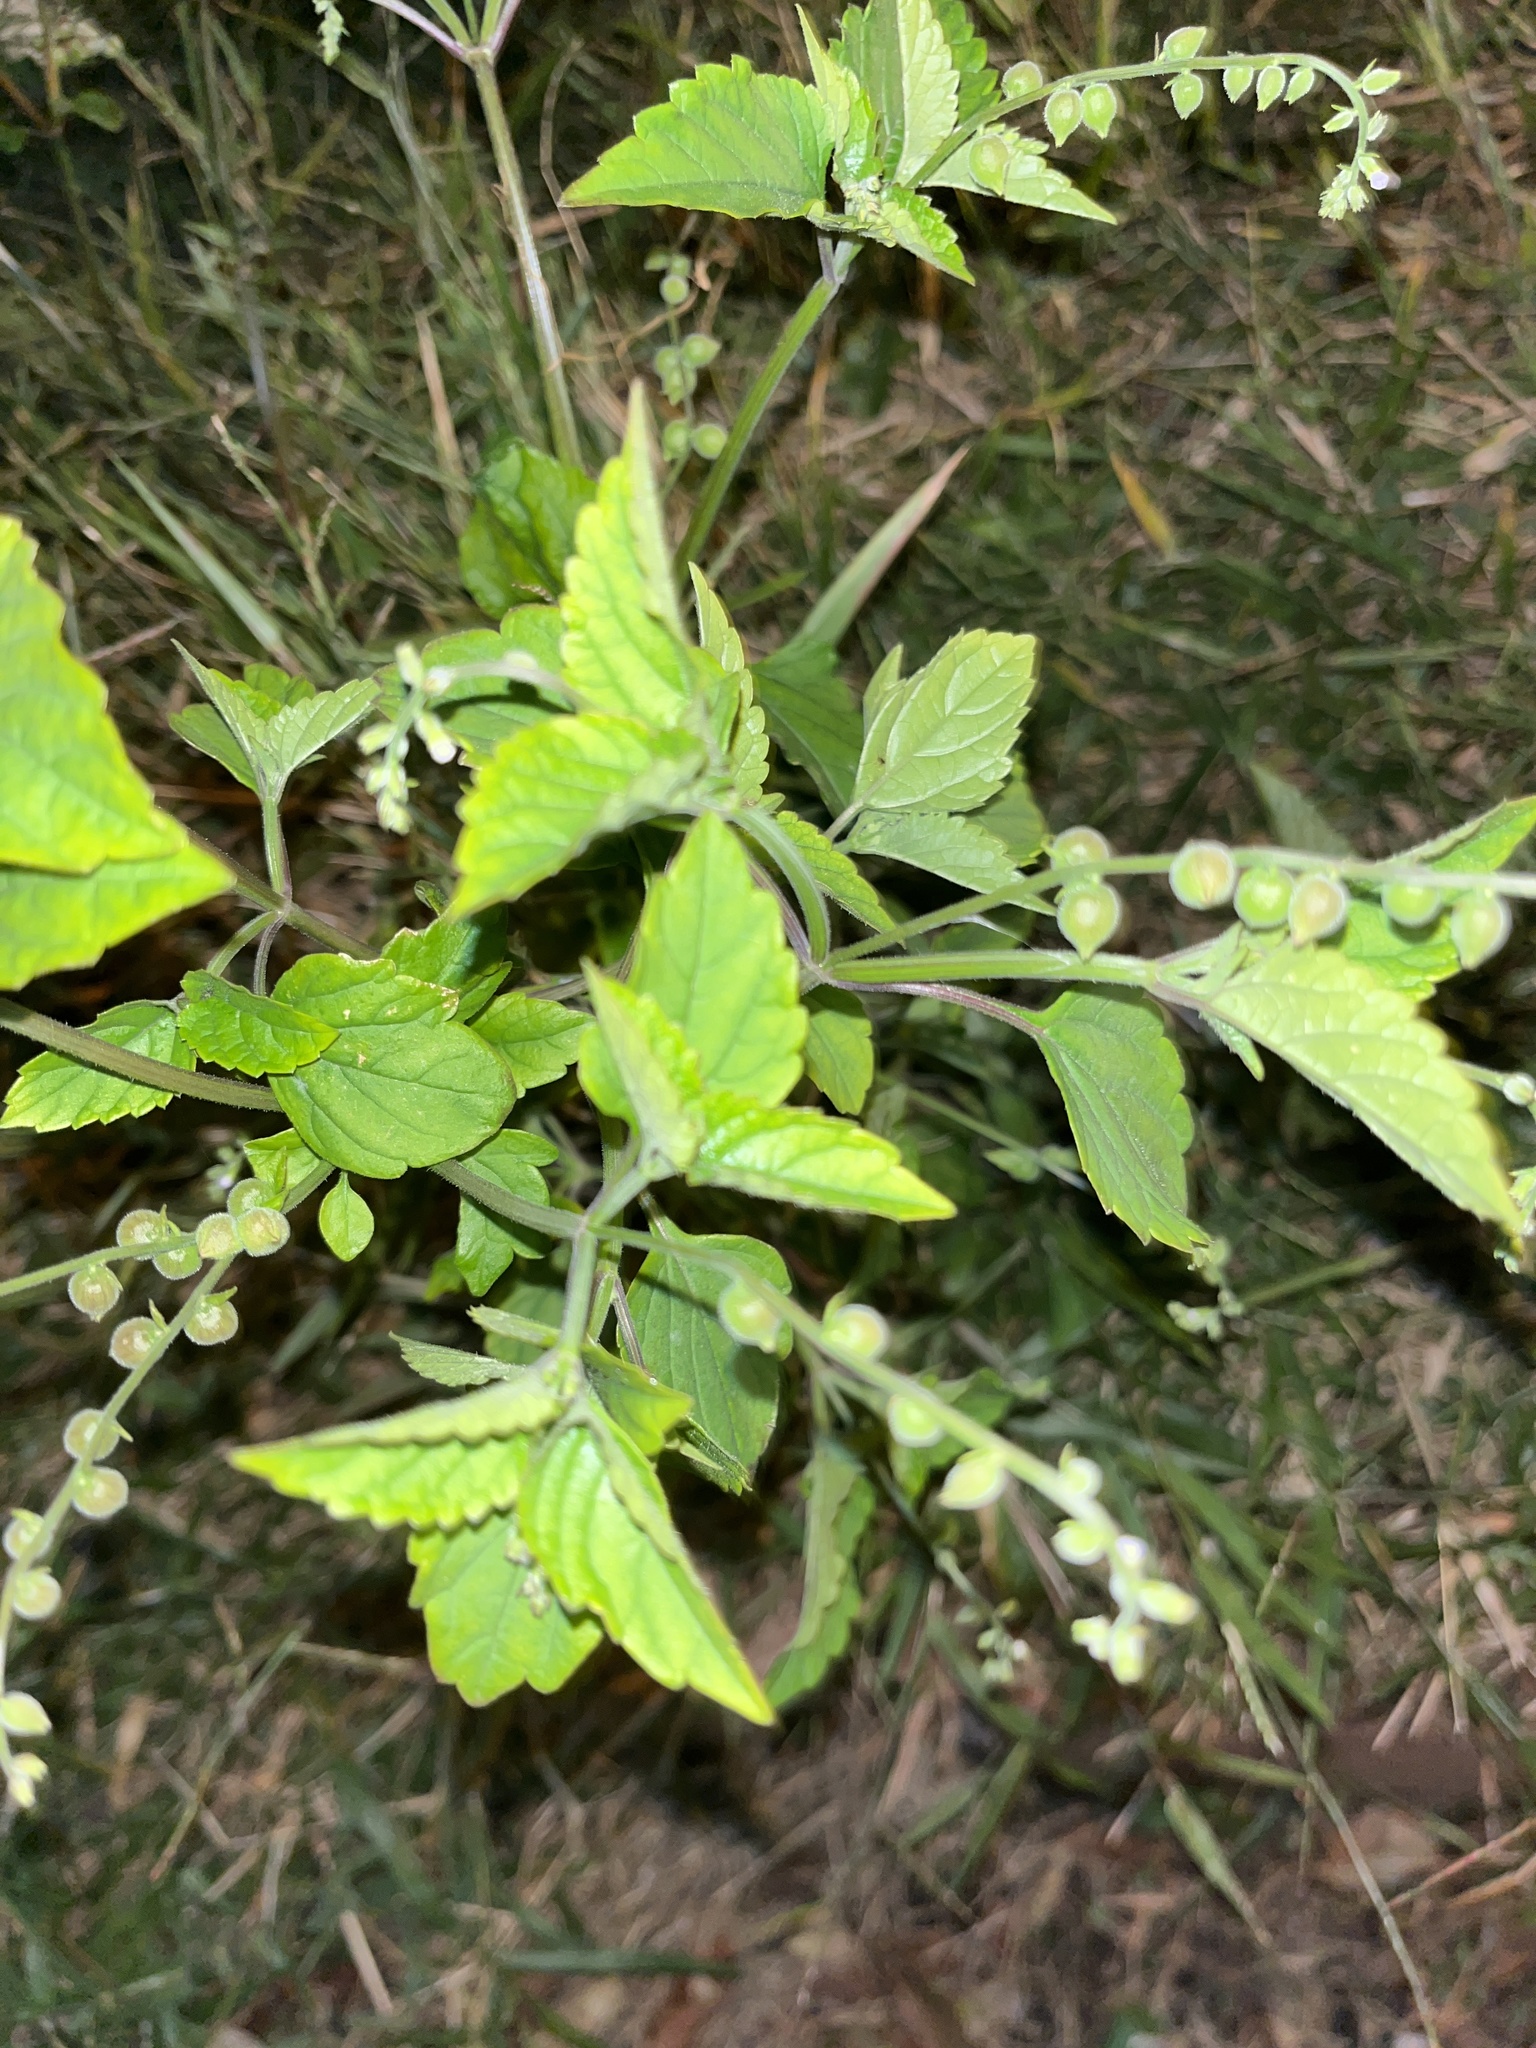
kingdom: Plantae
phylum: Tracheophyta
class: Magnoliopsida
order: Lamiales
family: Verbenaceae
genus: Priva
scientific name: Priva lappulacea
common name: Fasten-'pon-coat
